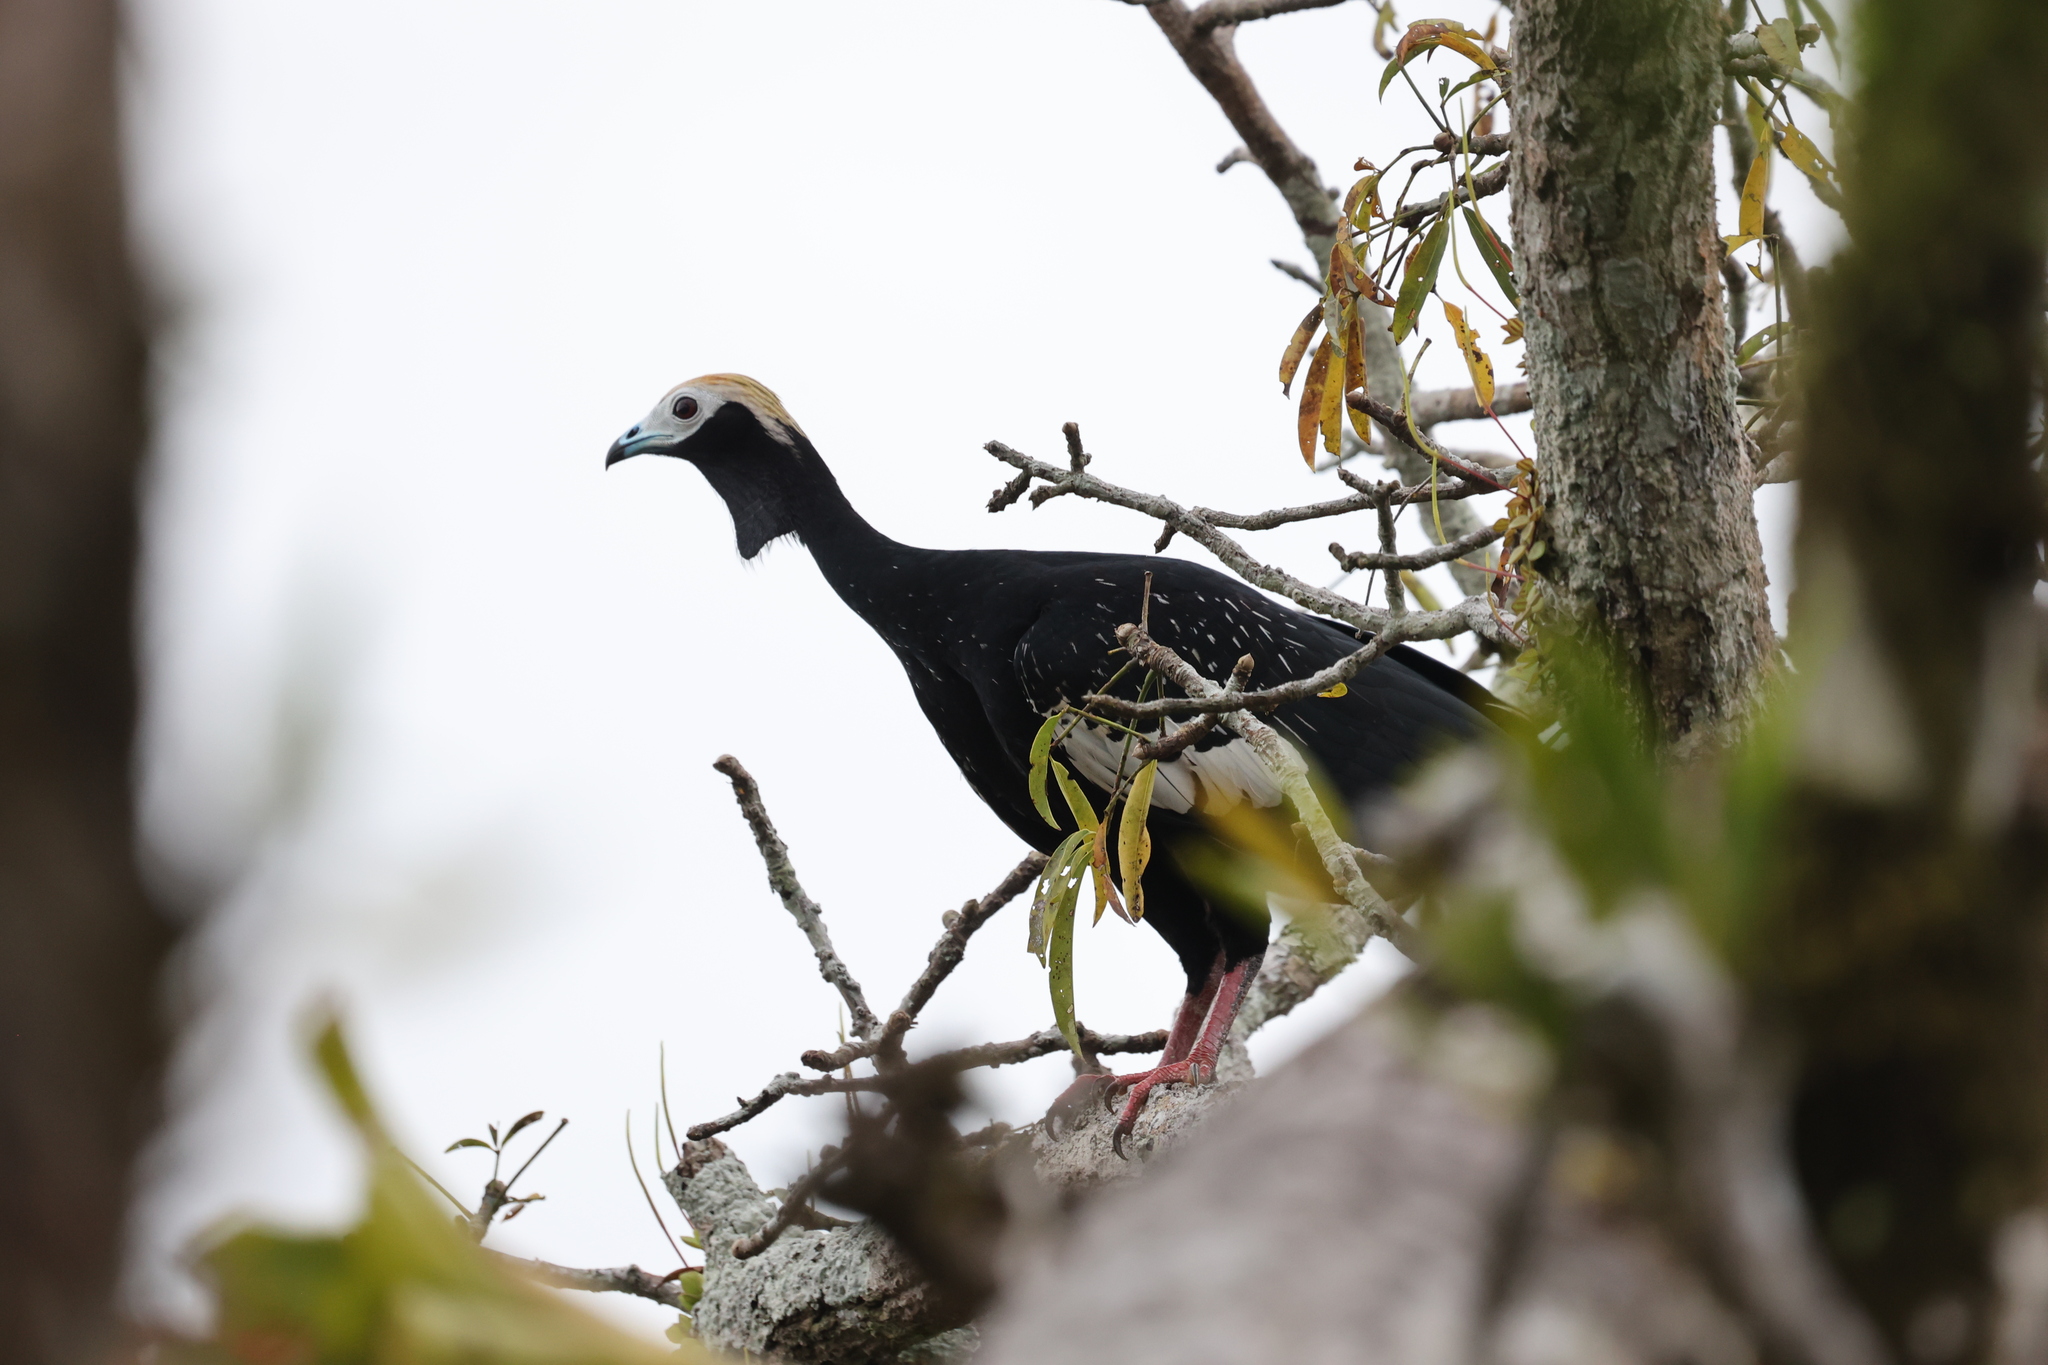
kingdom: Animalia
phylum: Chordata
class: Aves
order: Galliformes
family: Cracidae
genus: Pipile
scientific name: Pipile cumanensis
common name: Blue-throated piping-guan
